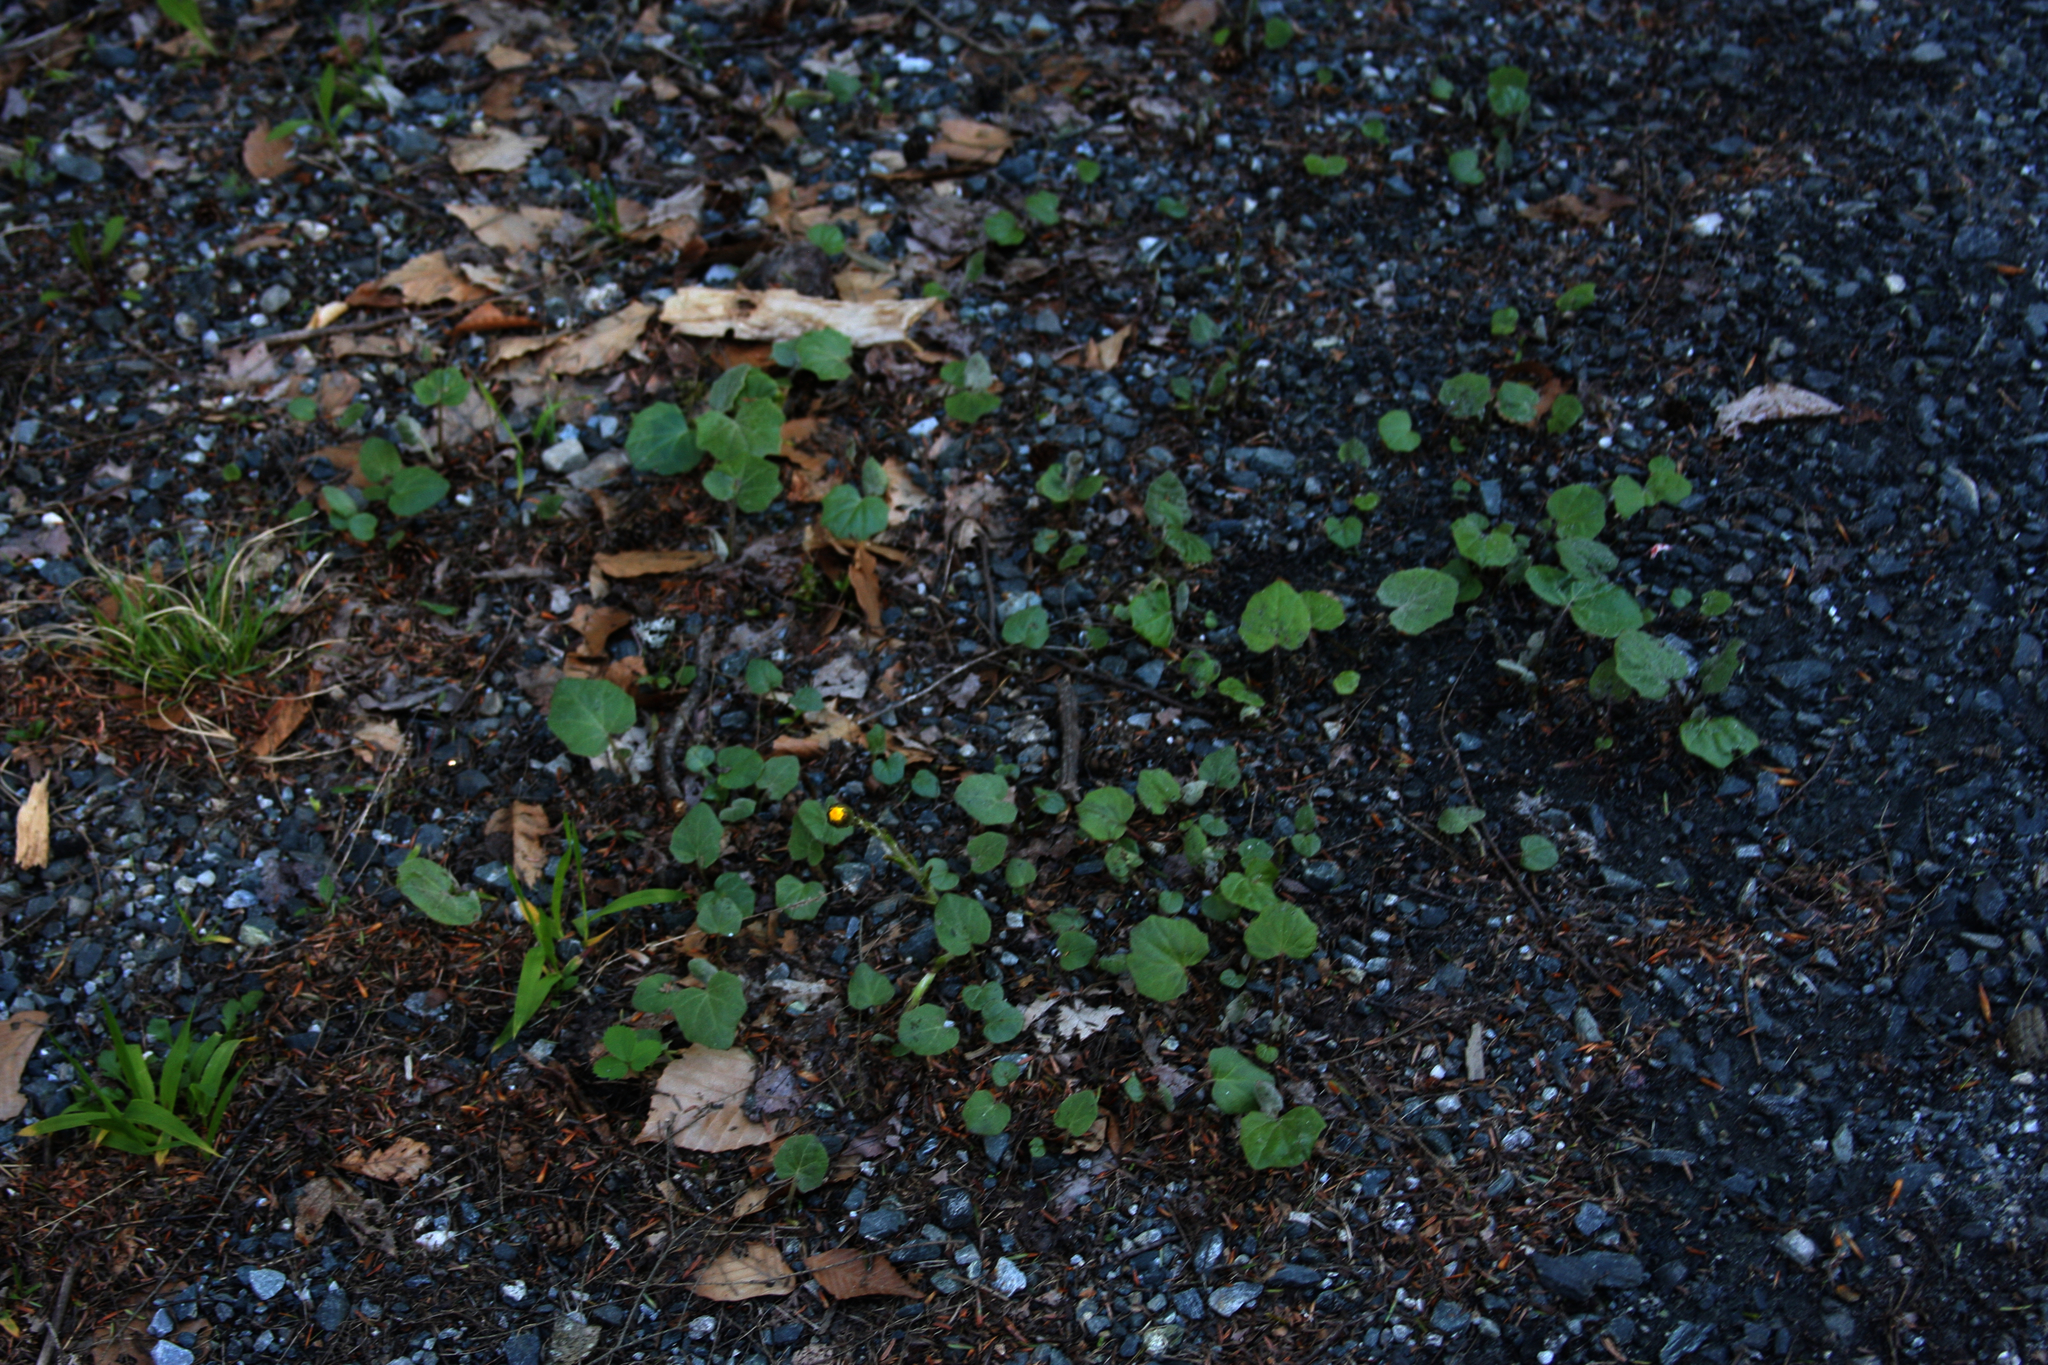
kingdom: Plantae
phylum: Tracheophyta
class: Magnoliopsida
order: Asterales
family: Asteraceae
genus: Tussilago
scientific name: Tussilago farfara
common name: Coltsfoot
